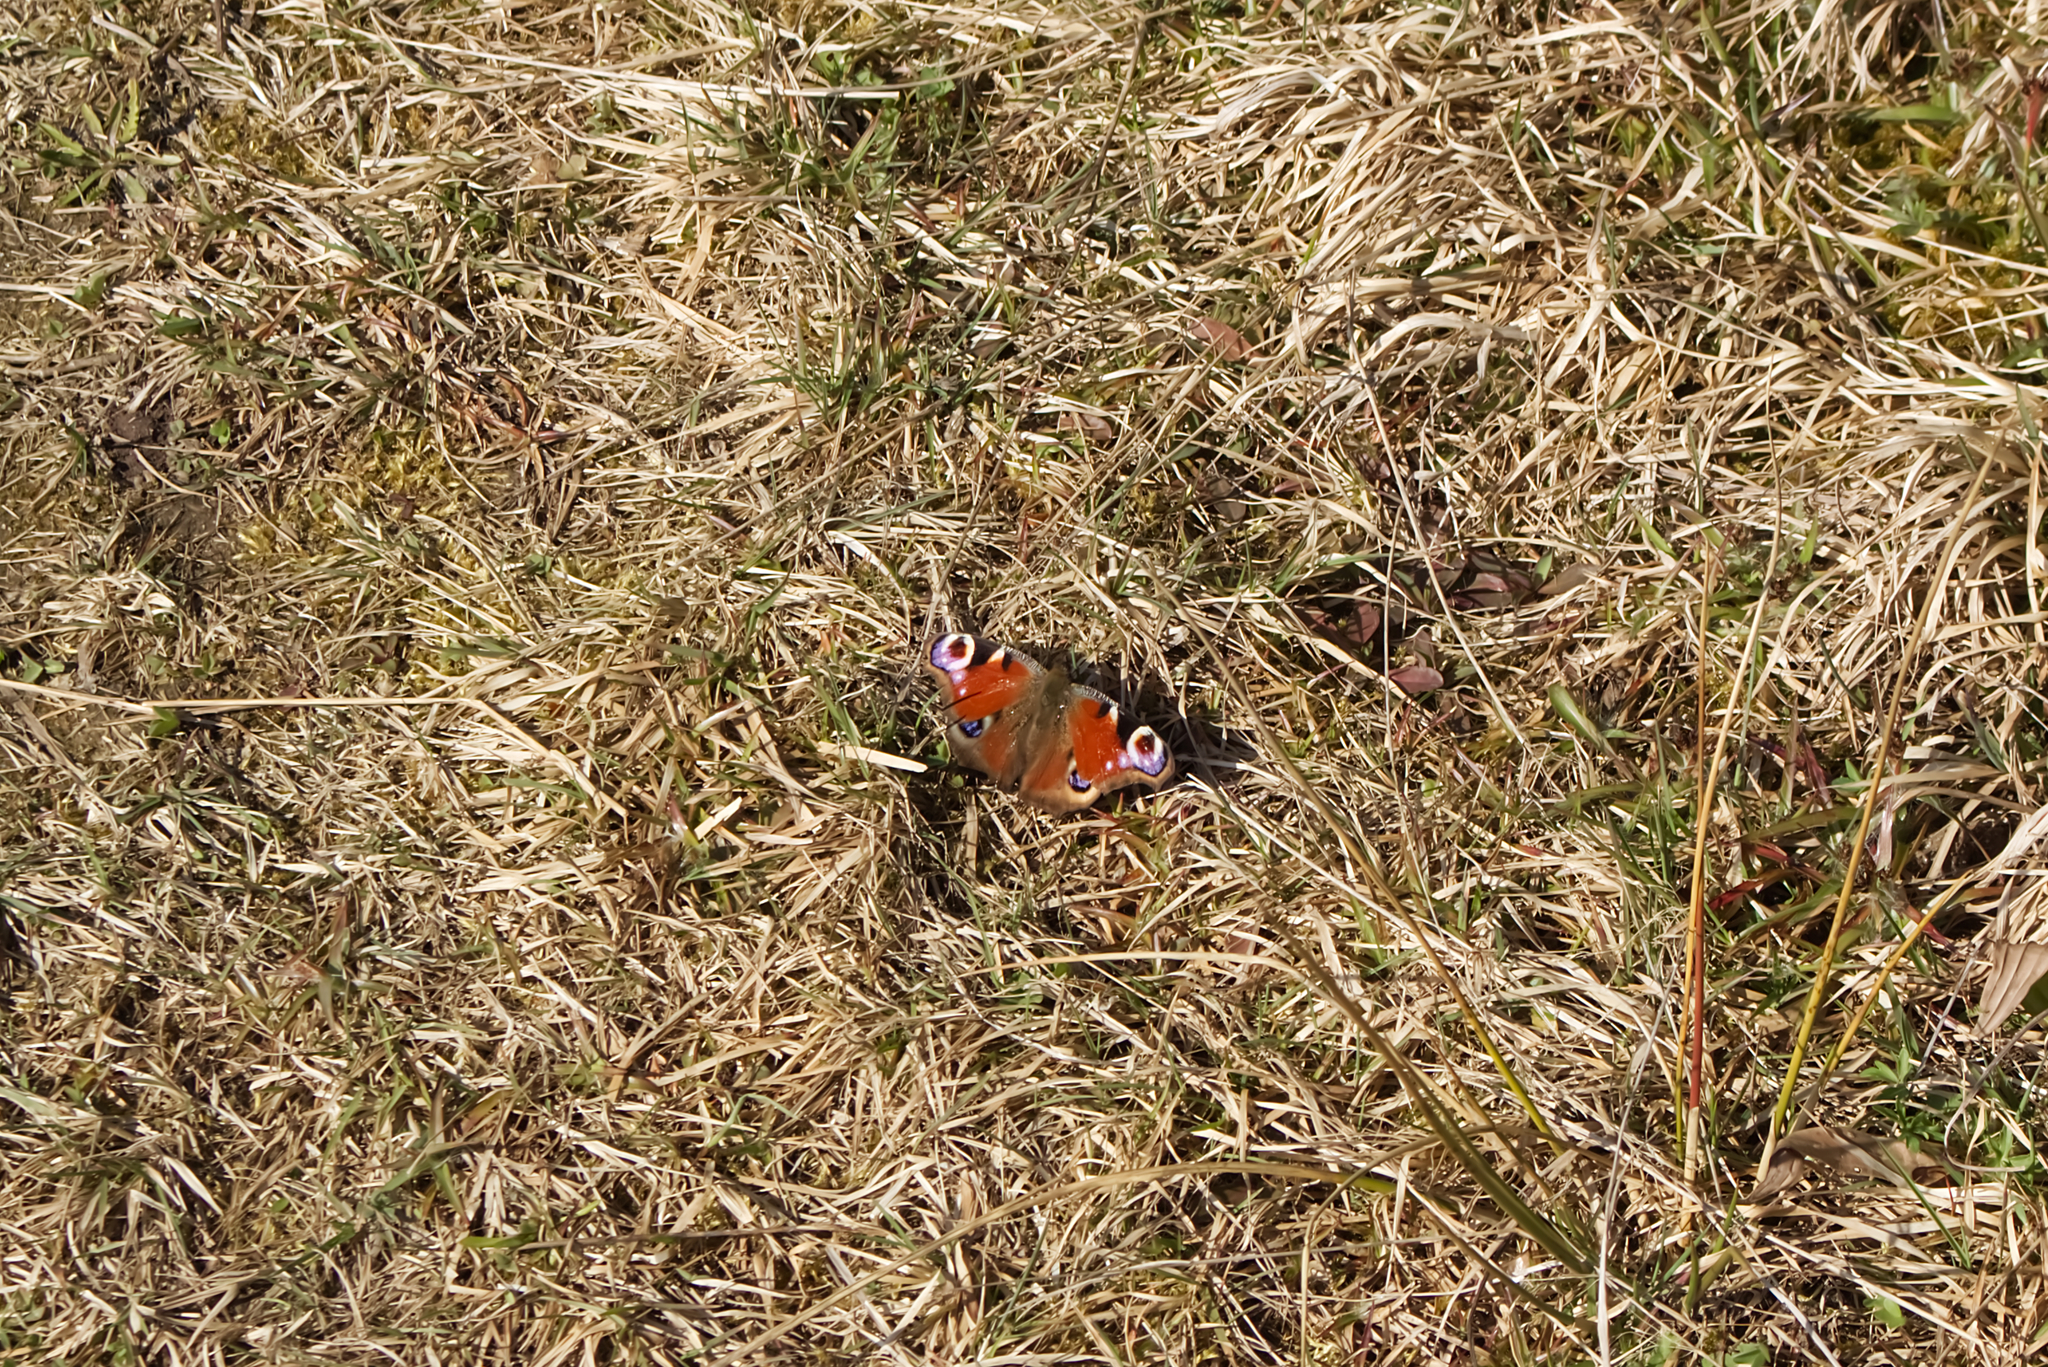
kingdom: Animalia
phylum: Arthropoda
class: Insecta
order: Lepidoptera
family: Nymphalidae
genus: Aglais
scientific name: Aglais io
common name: Peacock
